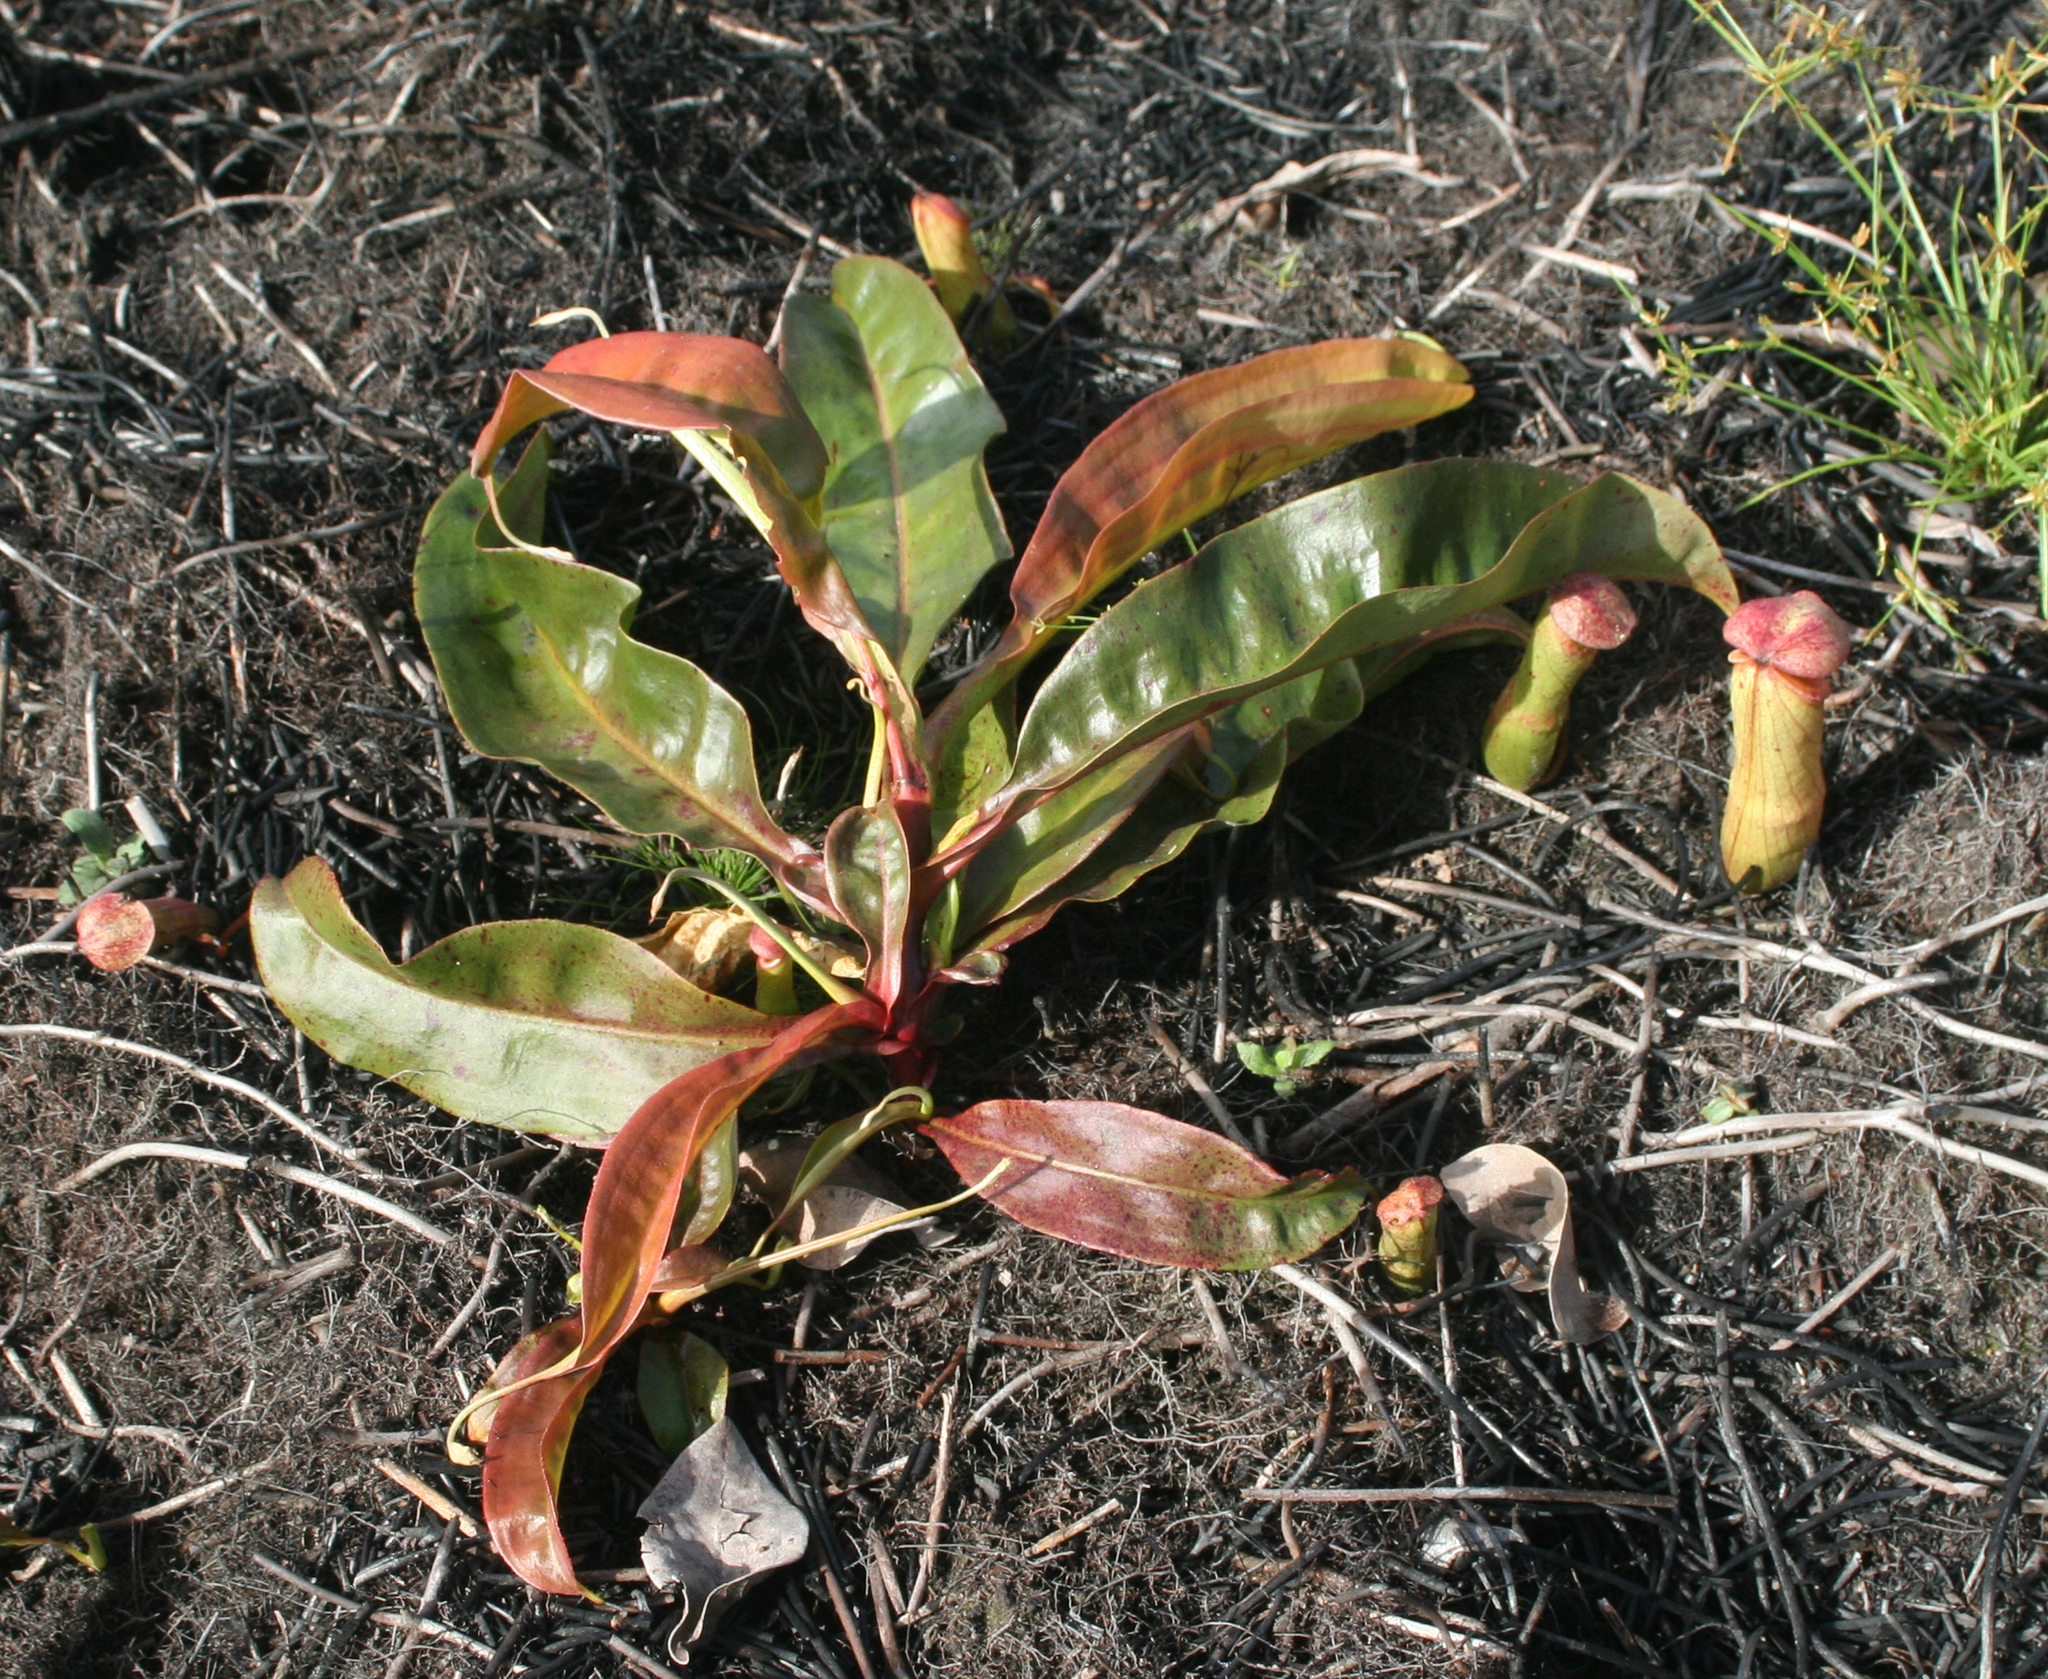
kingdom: Plantae
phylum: Tracheophyta
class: Magnoliopsida
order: Caryophyllales
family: Nepenthaceae
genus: Nepenthes
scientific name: Nepenthes mirabilis
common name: Tropical pitcherplant
